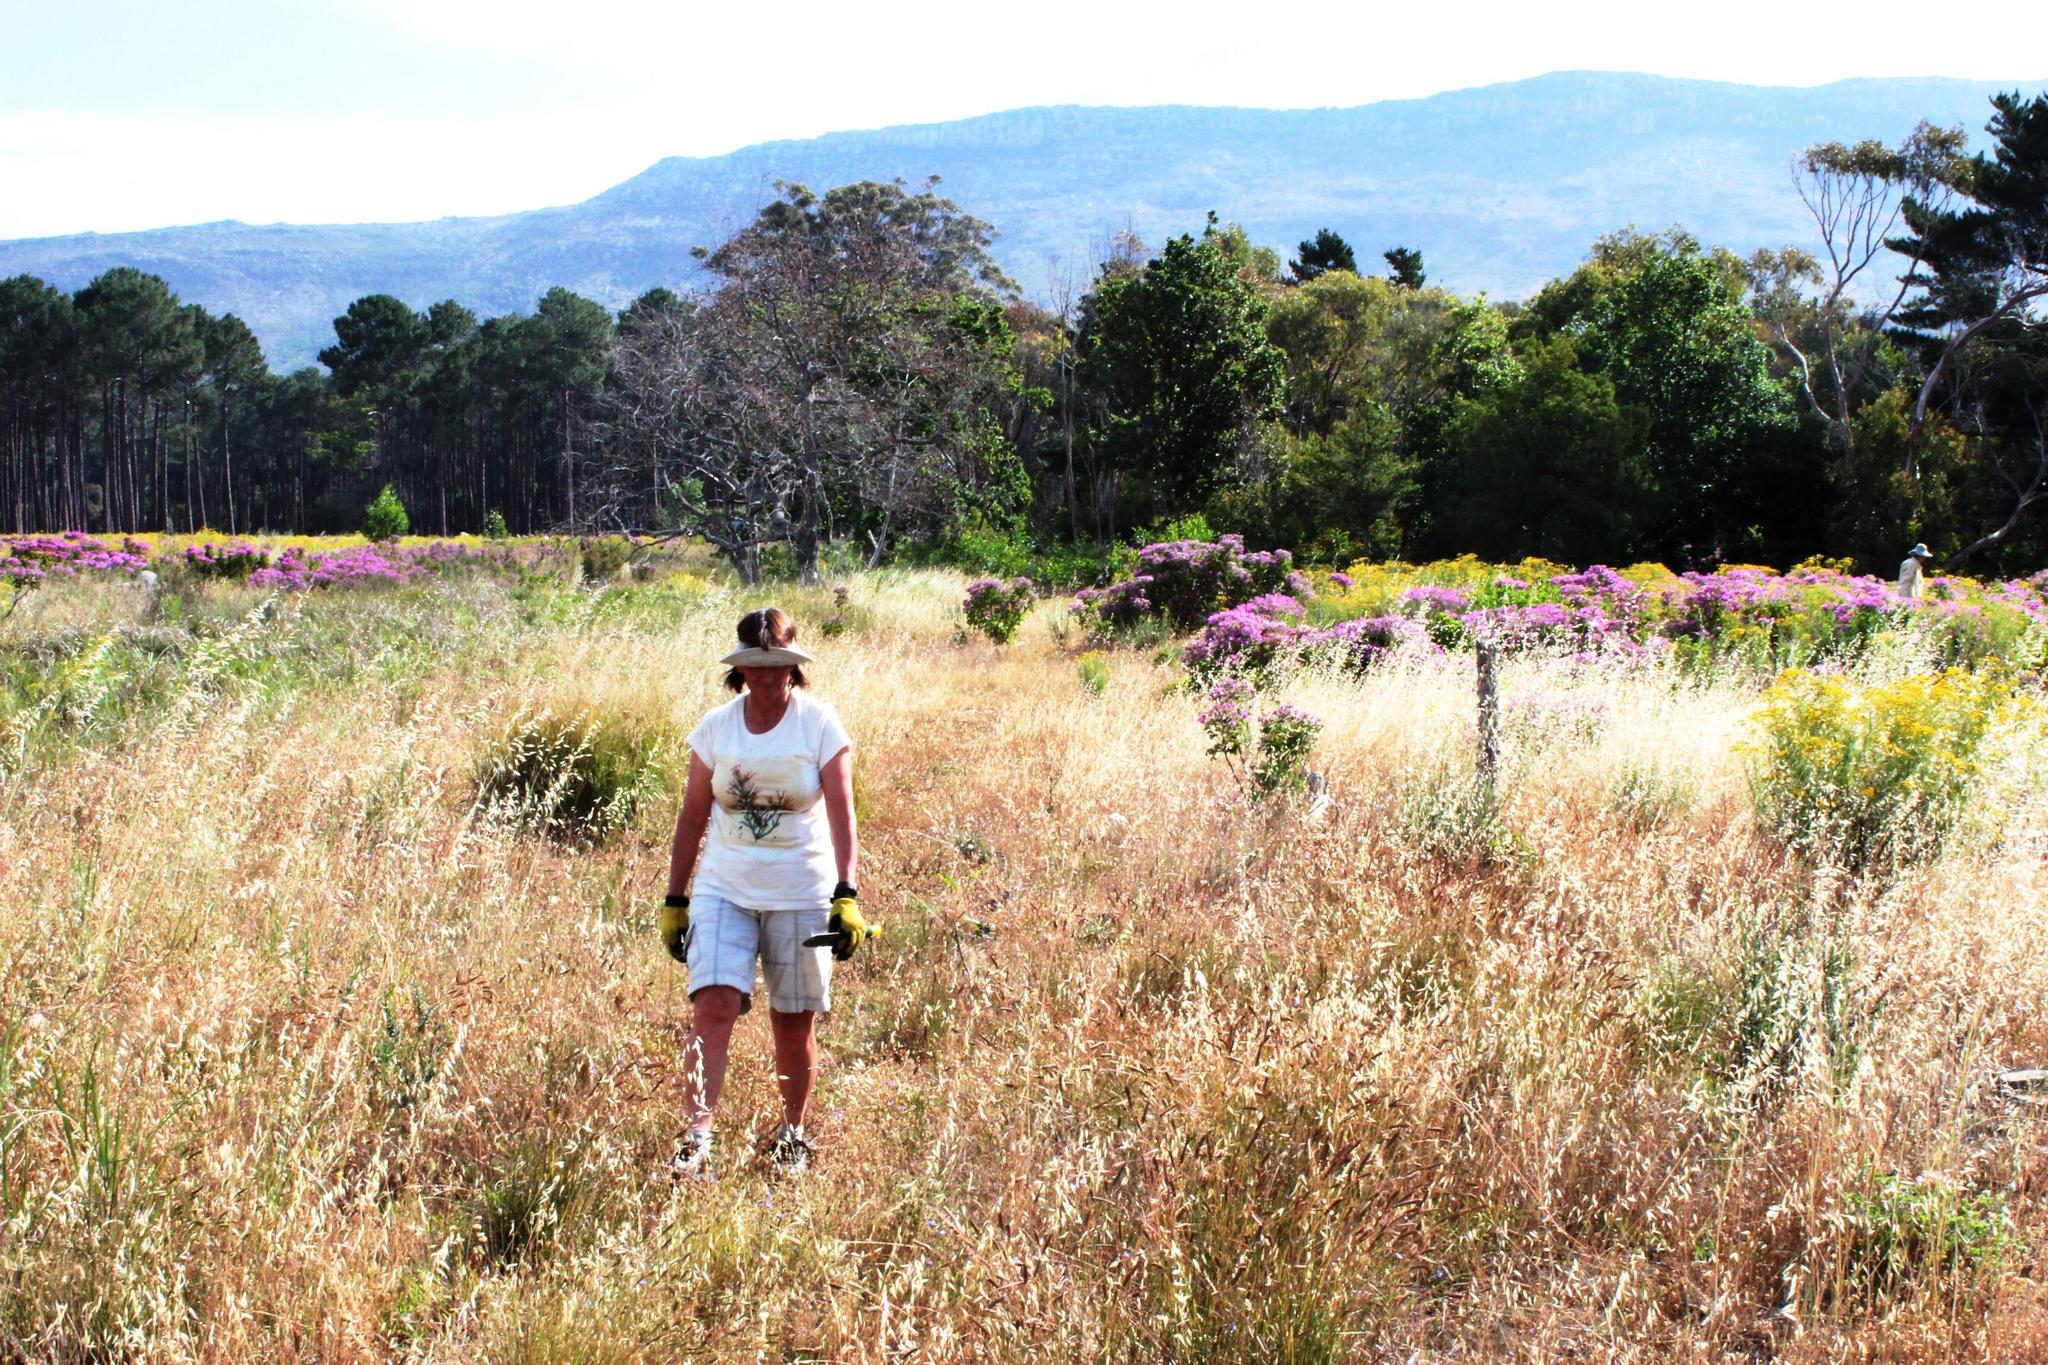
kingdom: Plantae
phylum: Tracheophyta
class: Liliopsida
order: Poales
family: Poaceae
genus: Avena
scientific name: Avena fatua
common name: Wild oat
